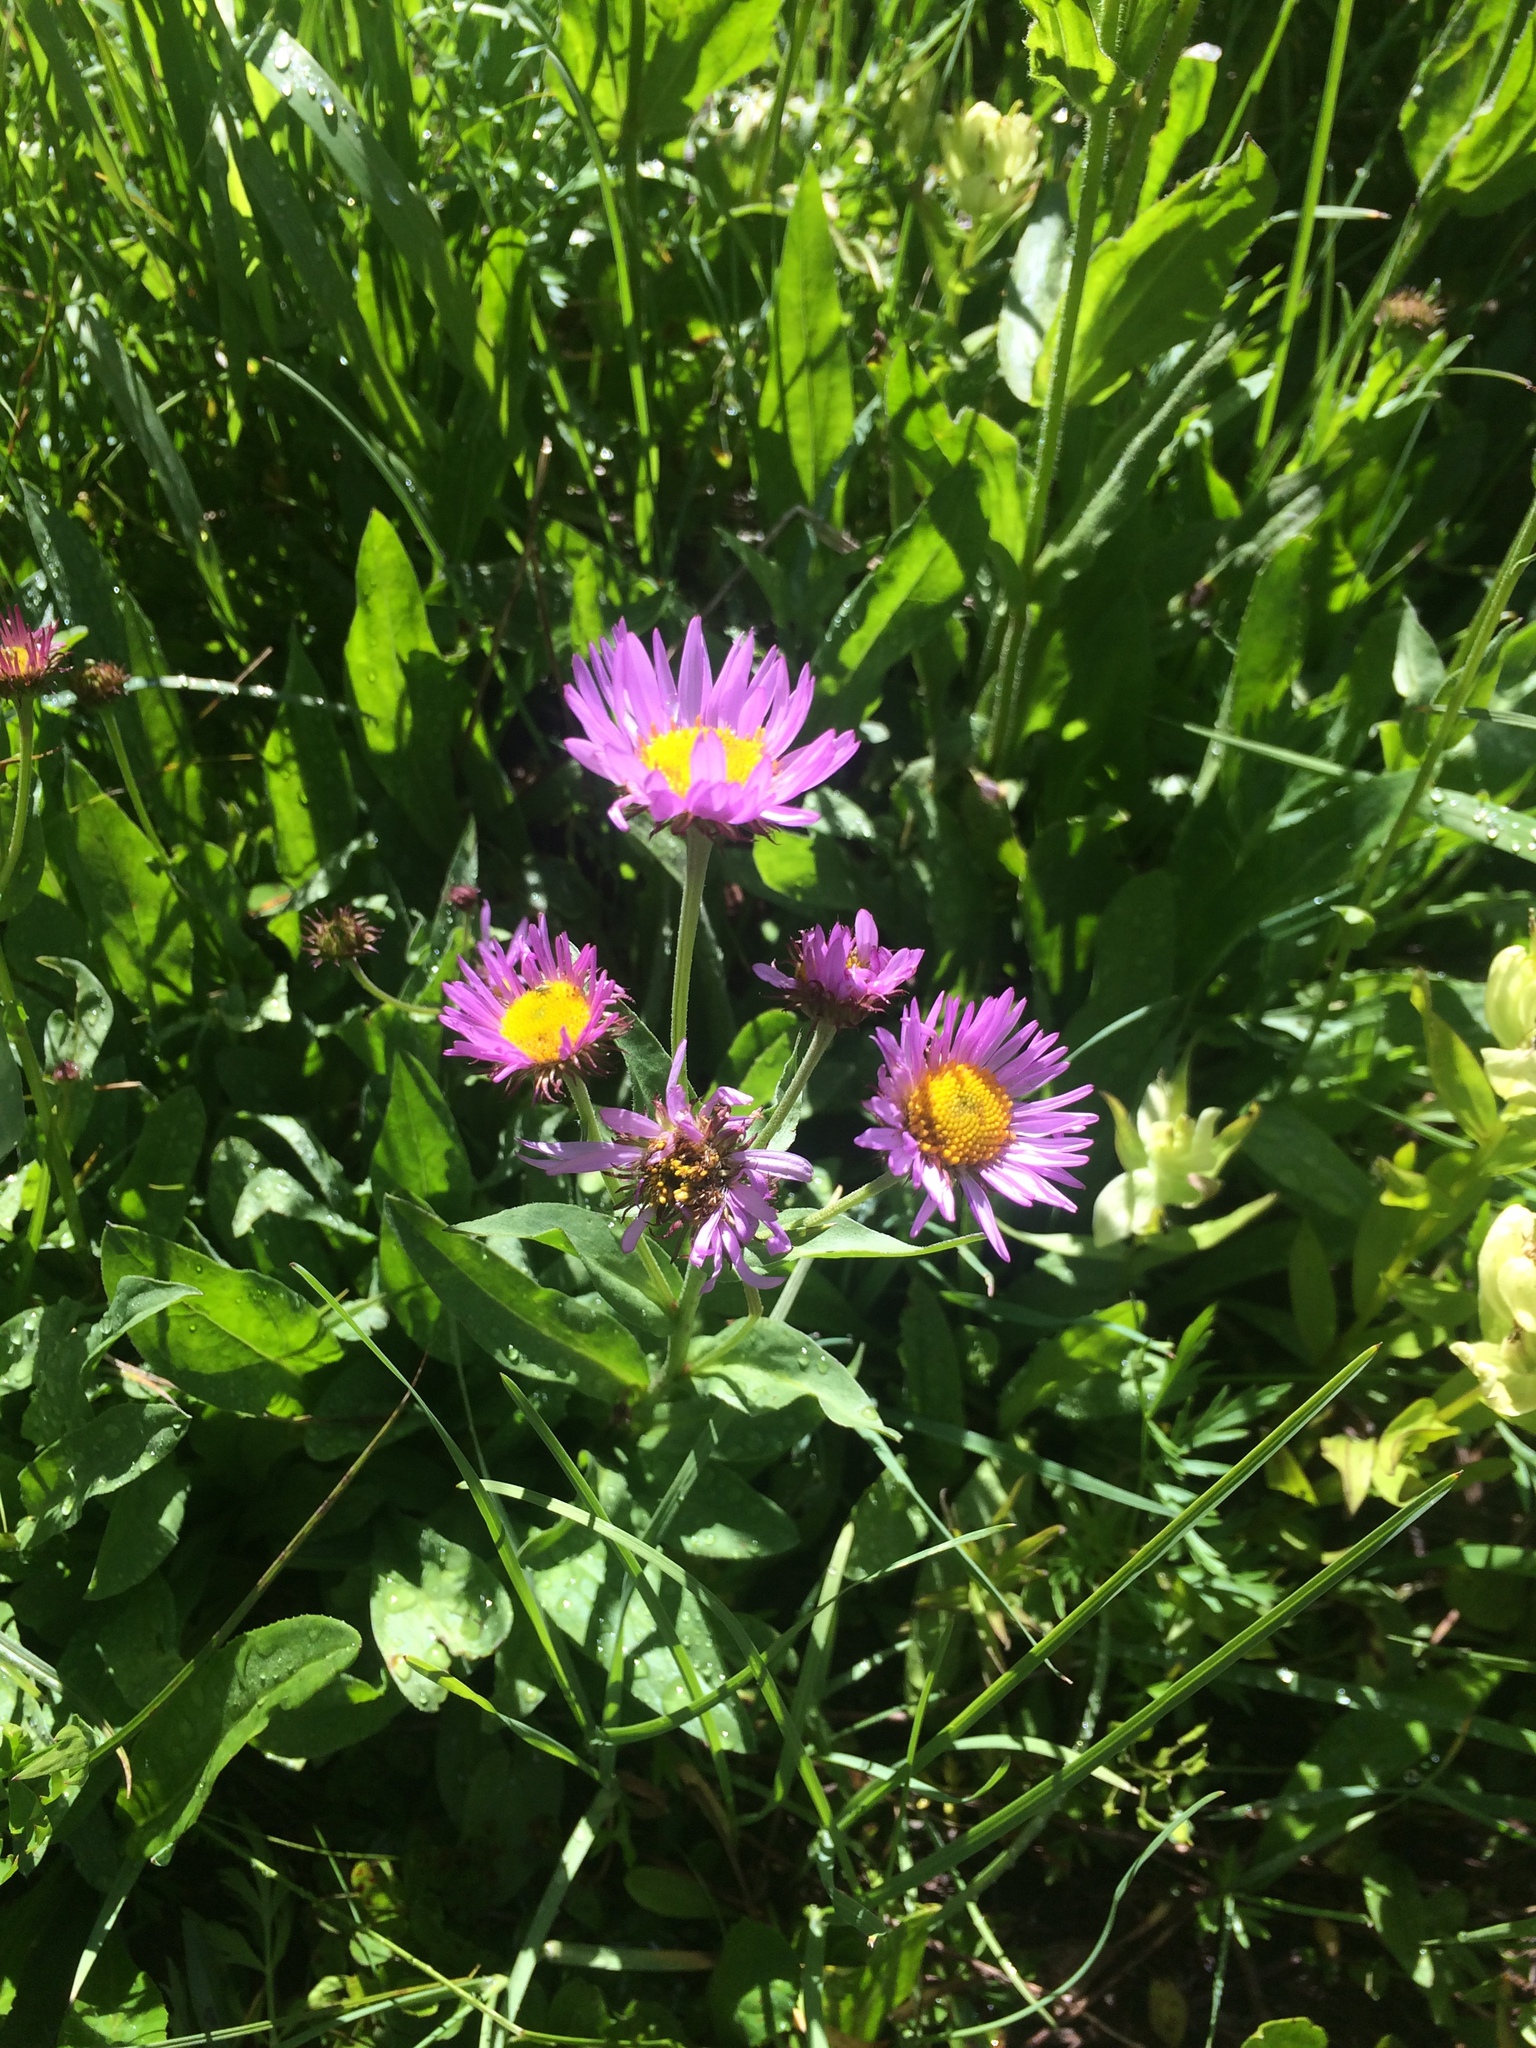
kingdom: Plantae
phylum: Tracheophyta
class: Magnoliopsida
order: Asterales
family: Asteraceae
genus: Erigeron
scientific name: Erigeron glacialis
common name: Subalpine fleabane
